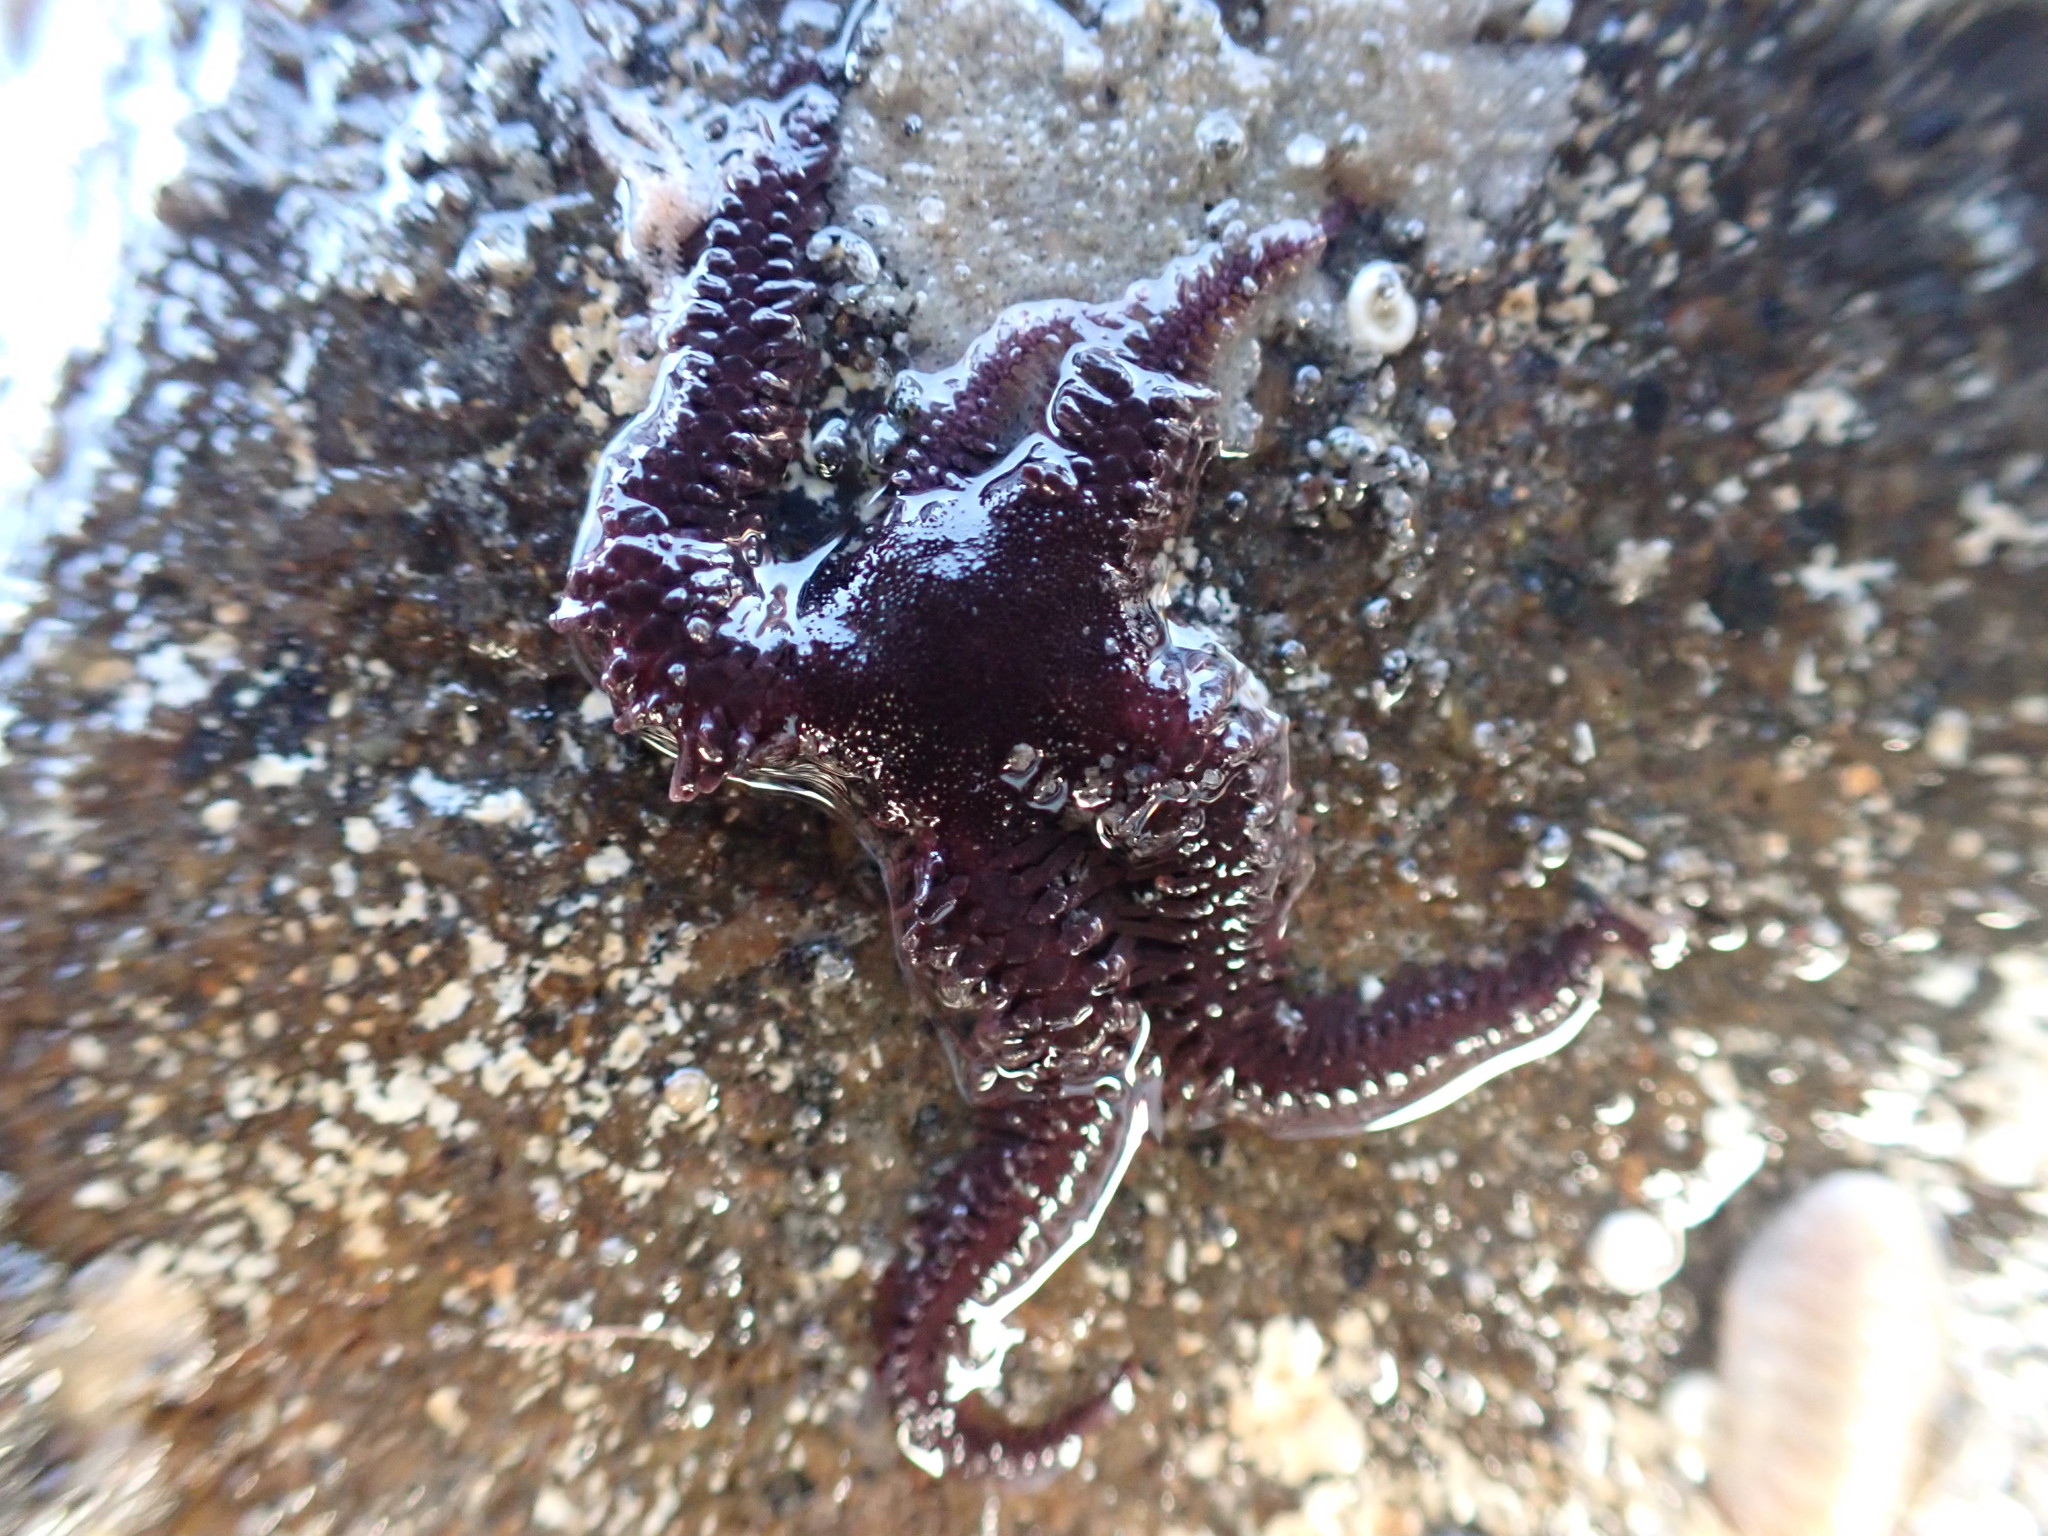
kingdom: Animalia
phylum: Echinodermata
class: Ophiuroidea
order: Ophiacanthida
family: Ophiopteridae
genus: Ophiopteris
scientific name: Ophiopteris antipodum
